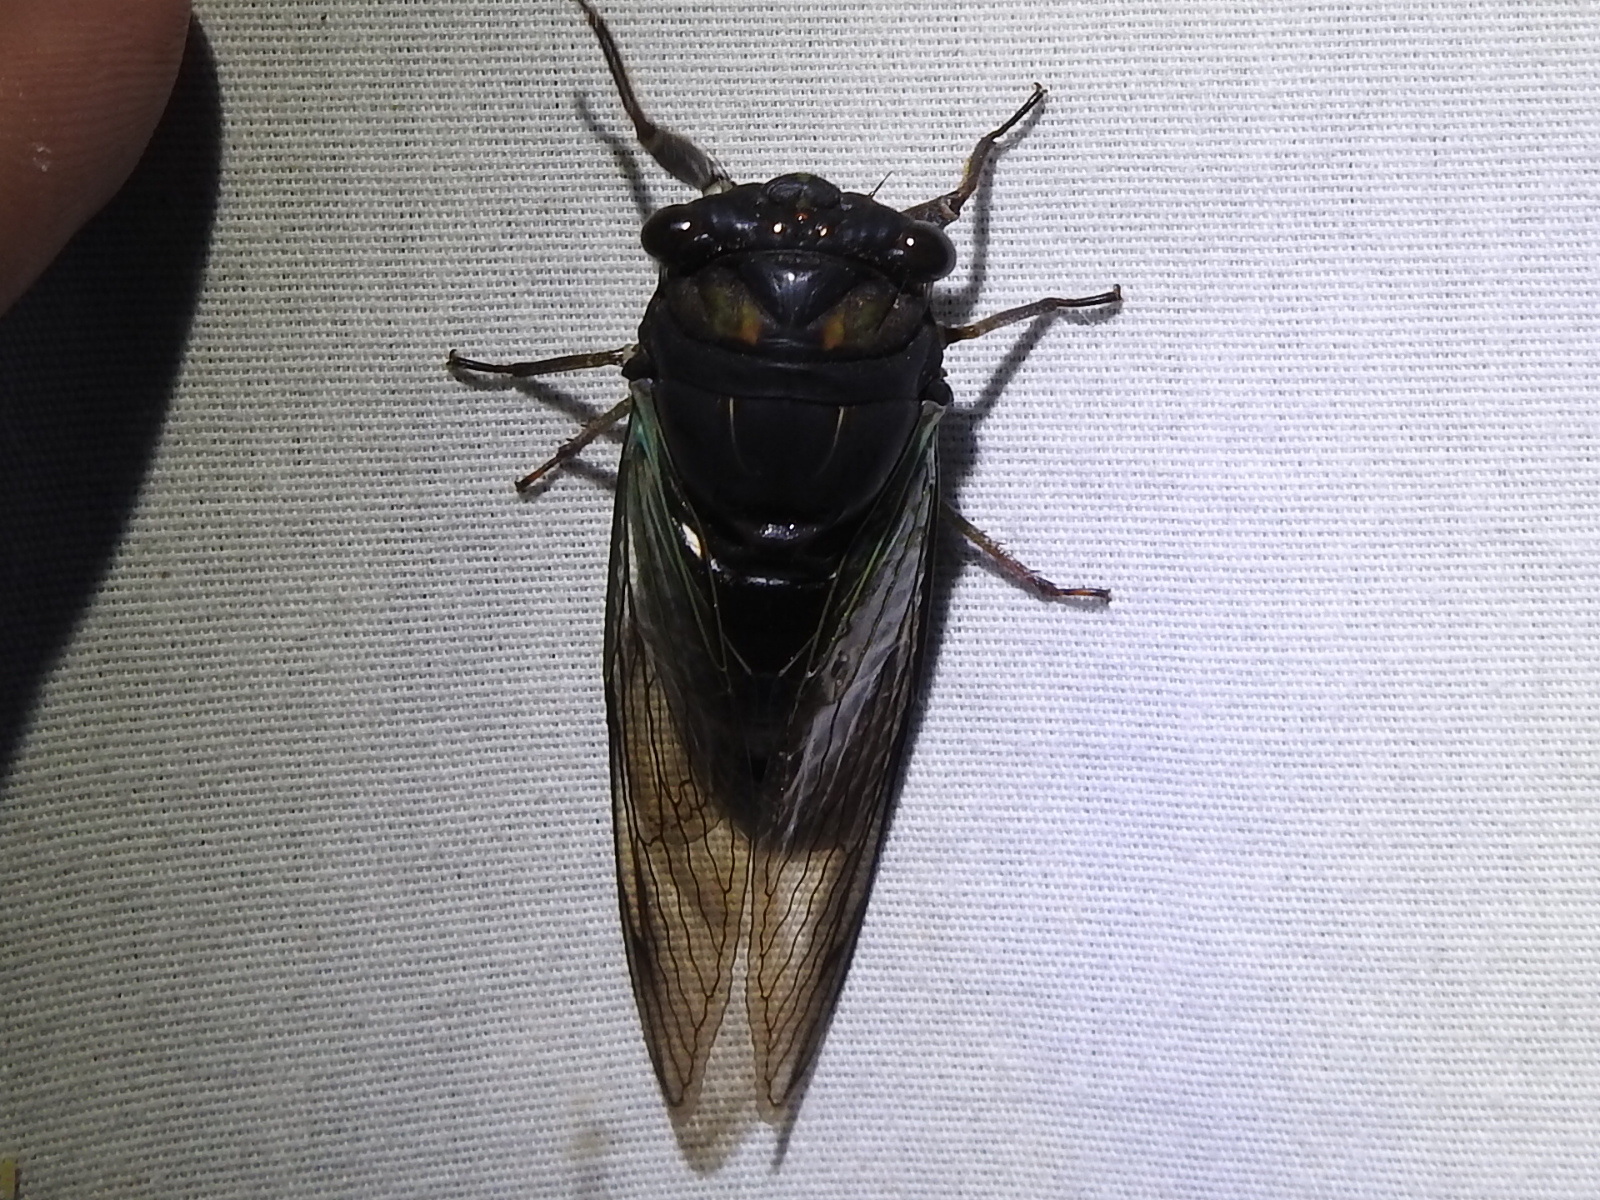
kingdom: Animalia
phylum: Arthropoda
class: Insecta
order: Hemiptera
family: Cicadidae
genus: Neotibicen
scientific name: Neotibicen lyricen
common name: Lyric cicada
